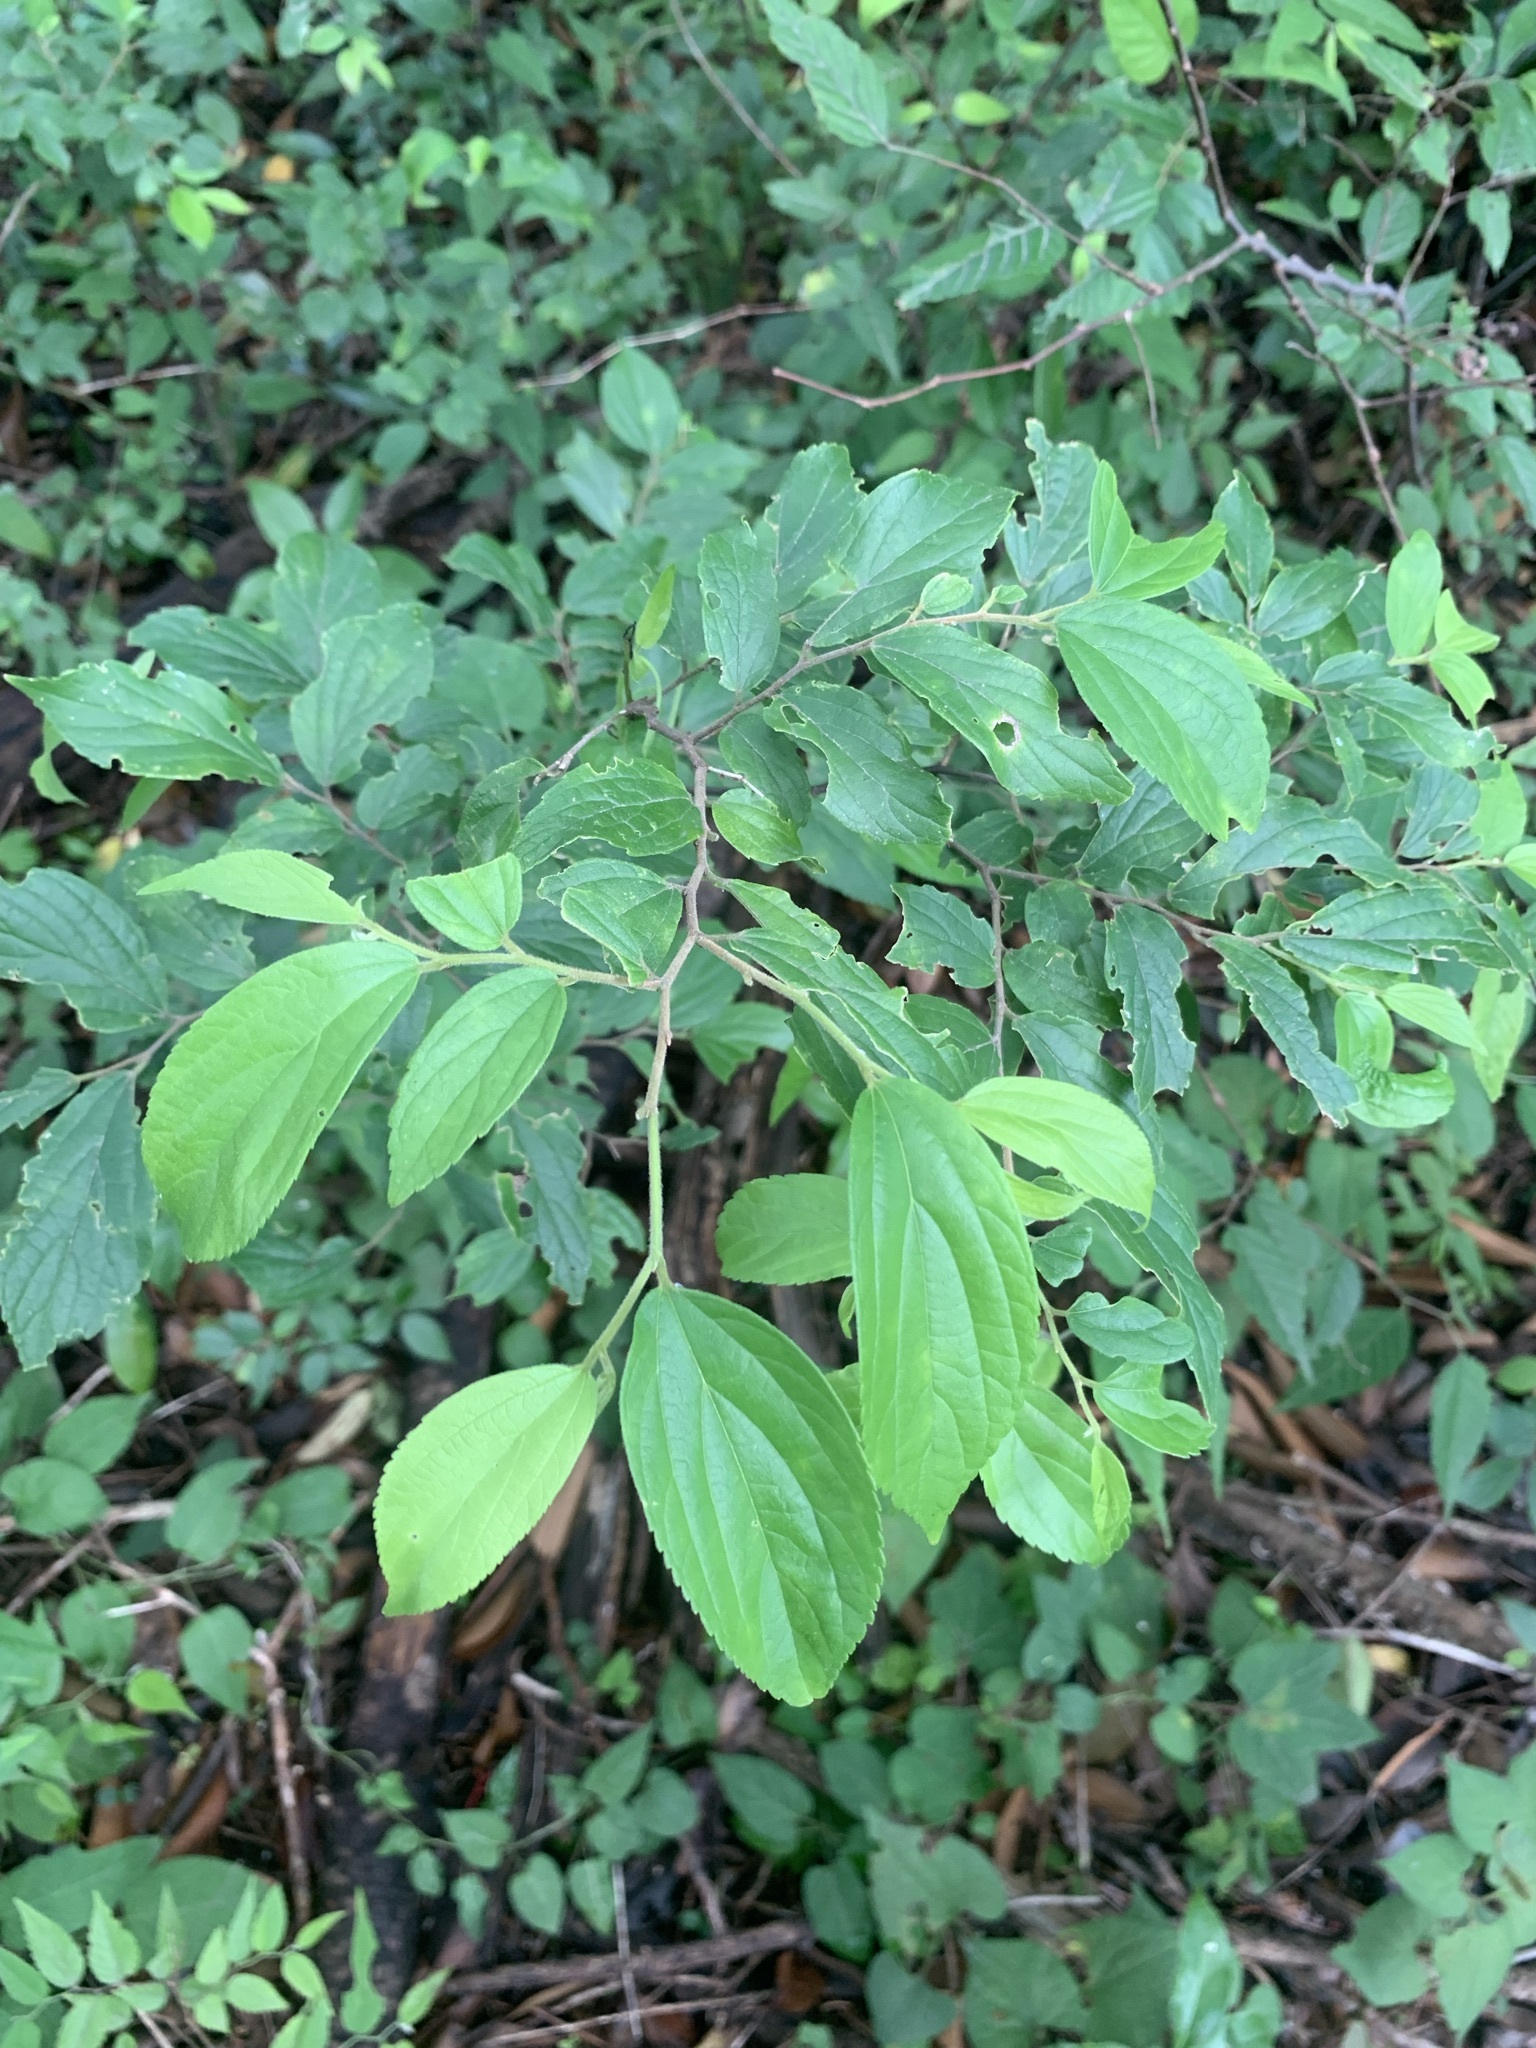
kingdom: Plantae
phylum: Tracheophyta
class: Magnoliopsida
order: Rosales
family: Cannabaceae
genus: Celtis
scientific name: Celtis sinensis
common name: Chinese hackberry
